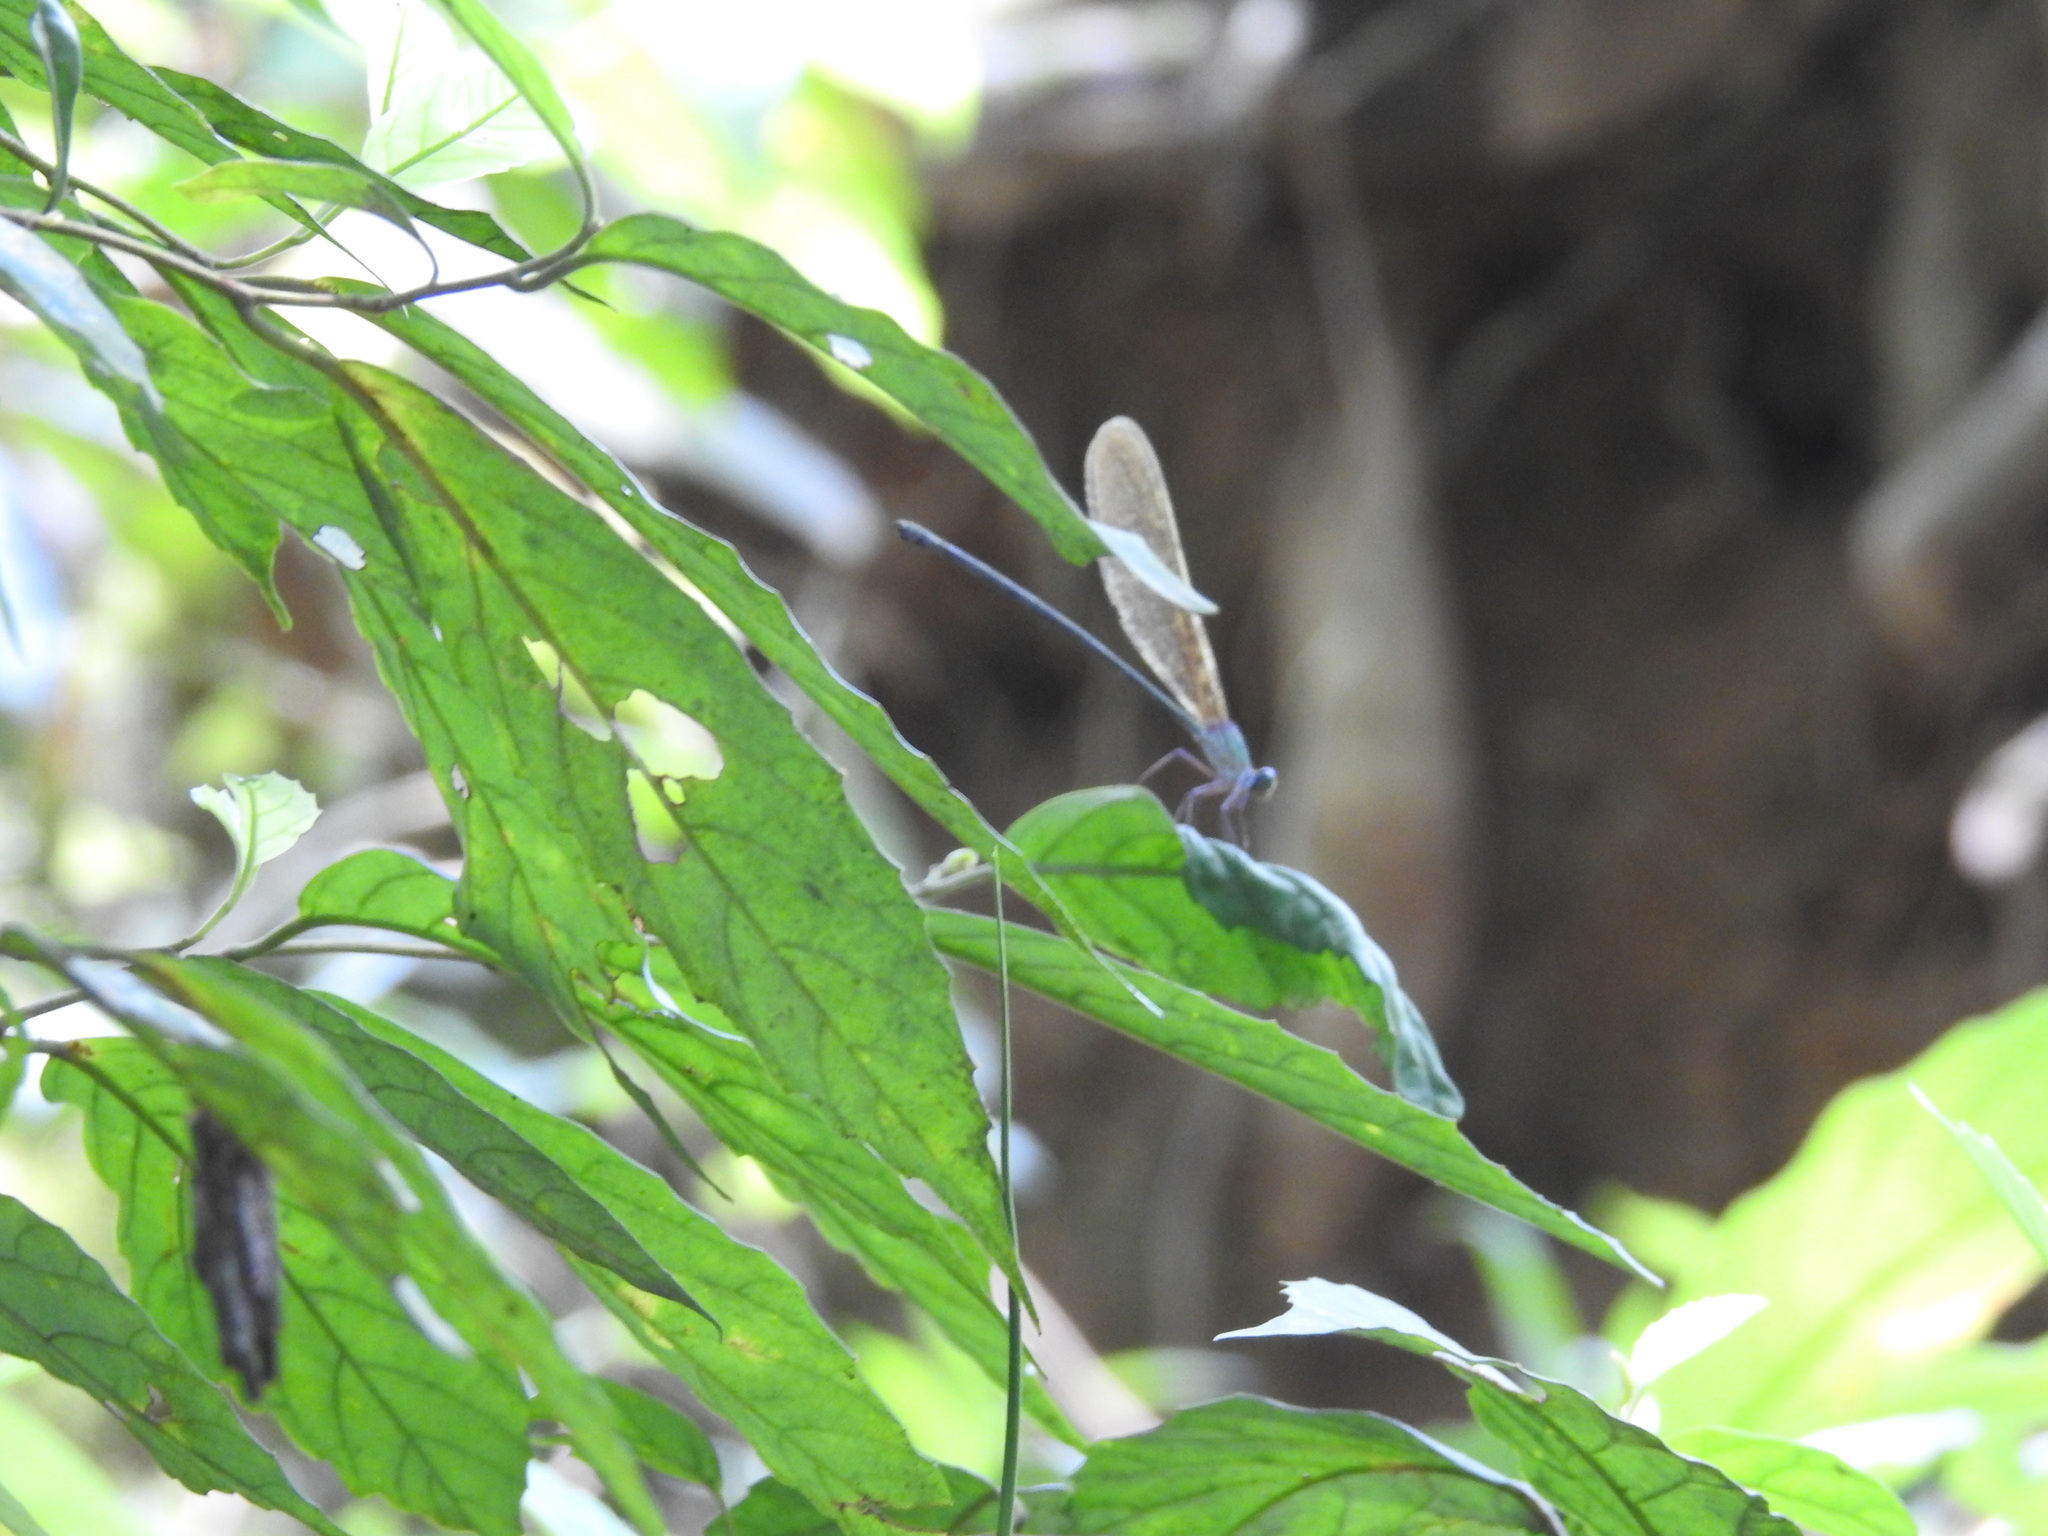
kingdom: Animalia
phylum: Arthropoda
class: Insecta
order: Odonata
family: Calopterygidae
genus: Vestalis
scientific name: Vestalis gracilis
